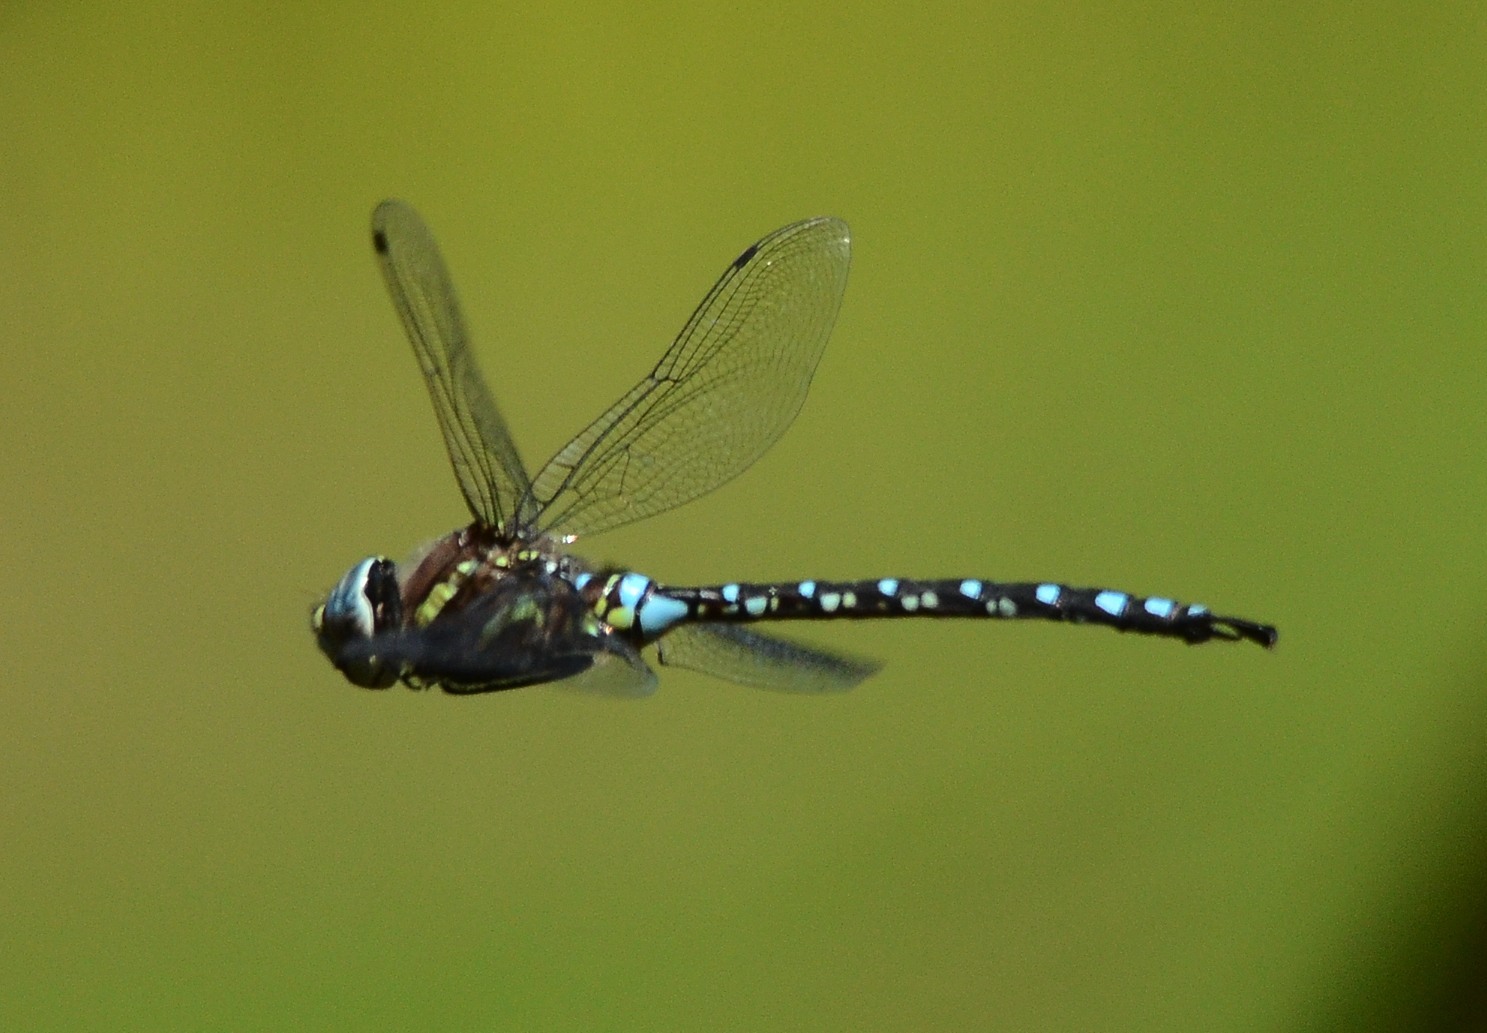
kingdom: Animalia
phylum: Arthropoda
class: Insecta
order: Odonata
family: Aeshnidae
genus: Aeshna
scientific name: Aeshna palmata
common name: Paddle-tailed darner
